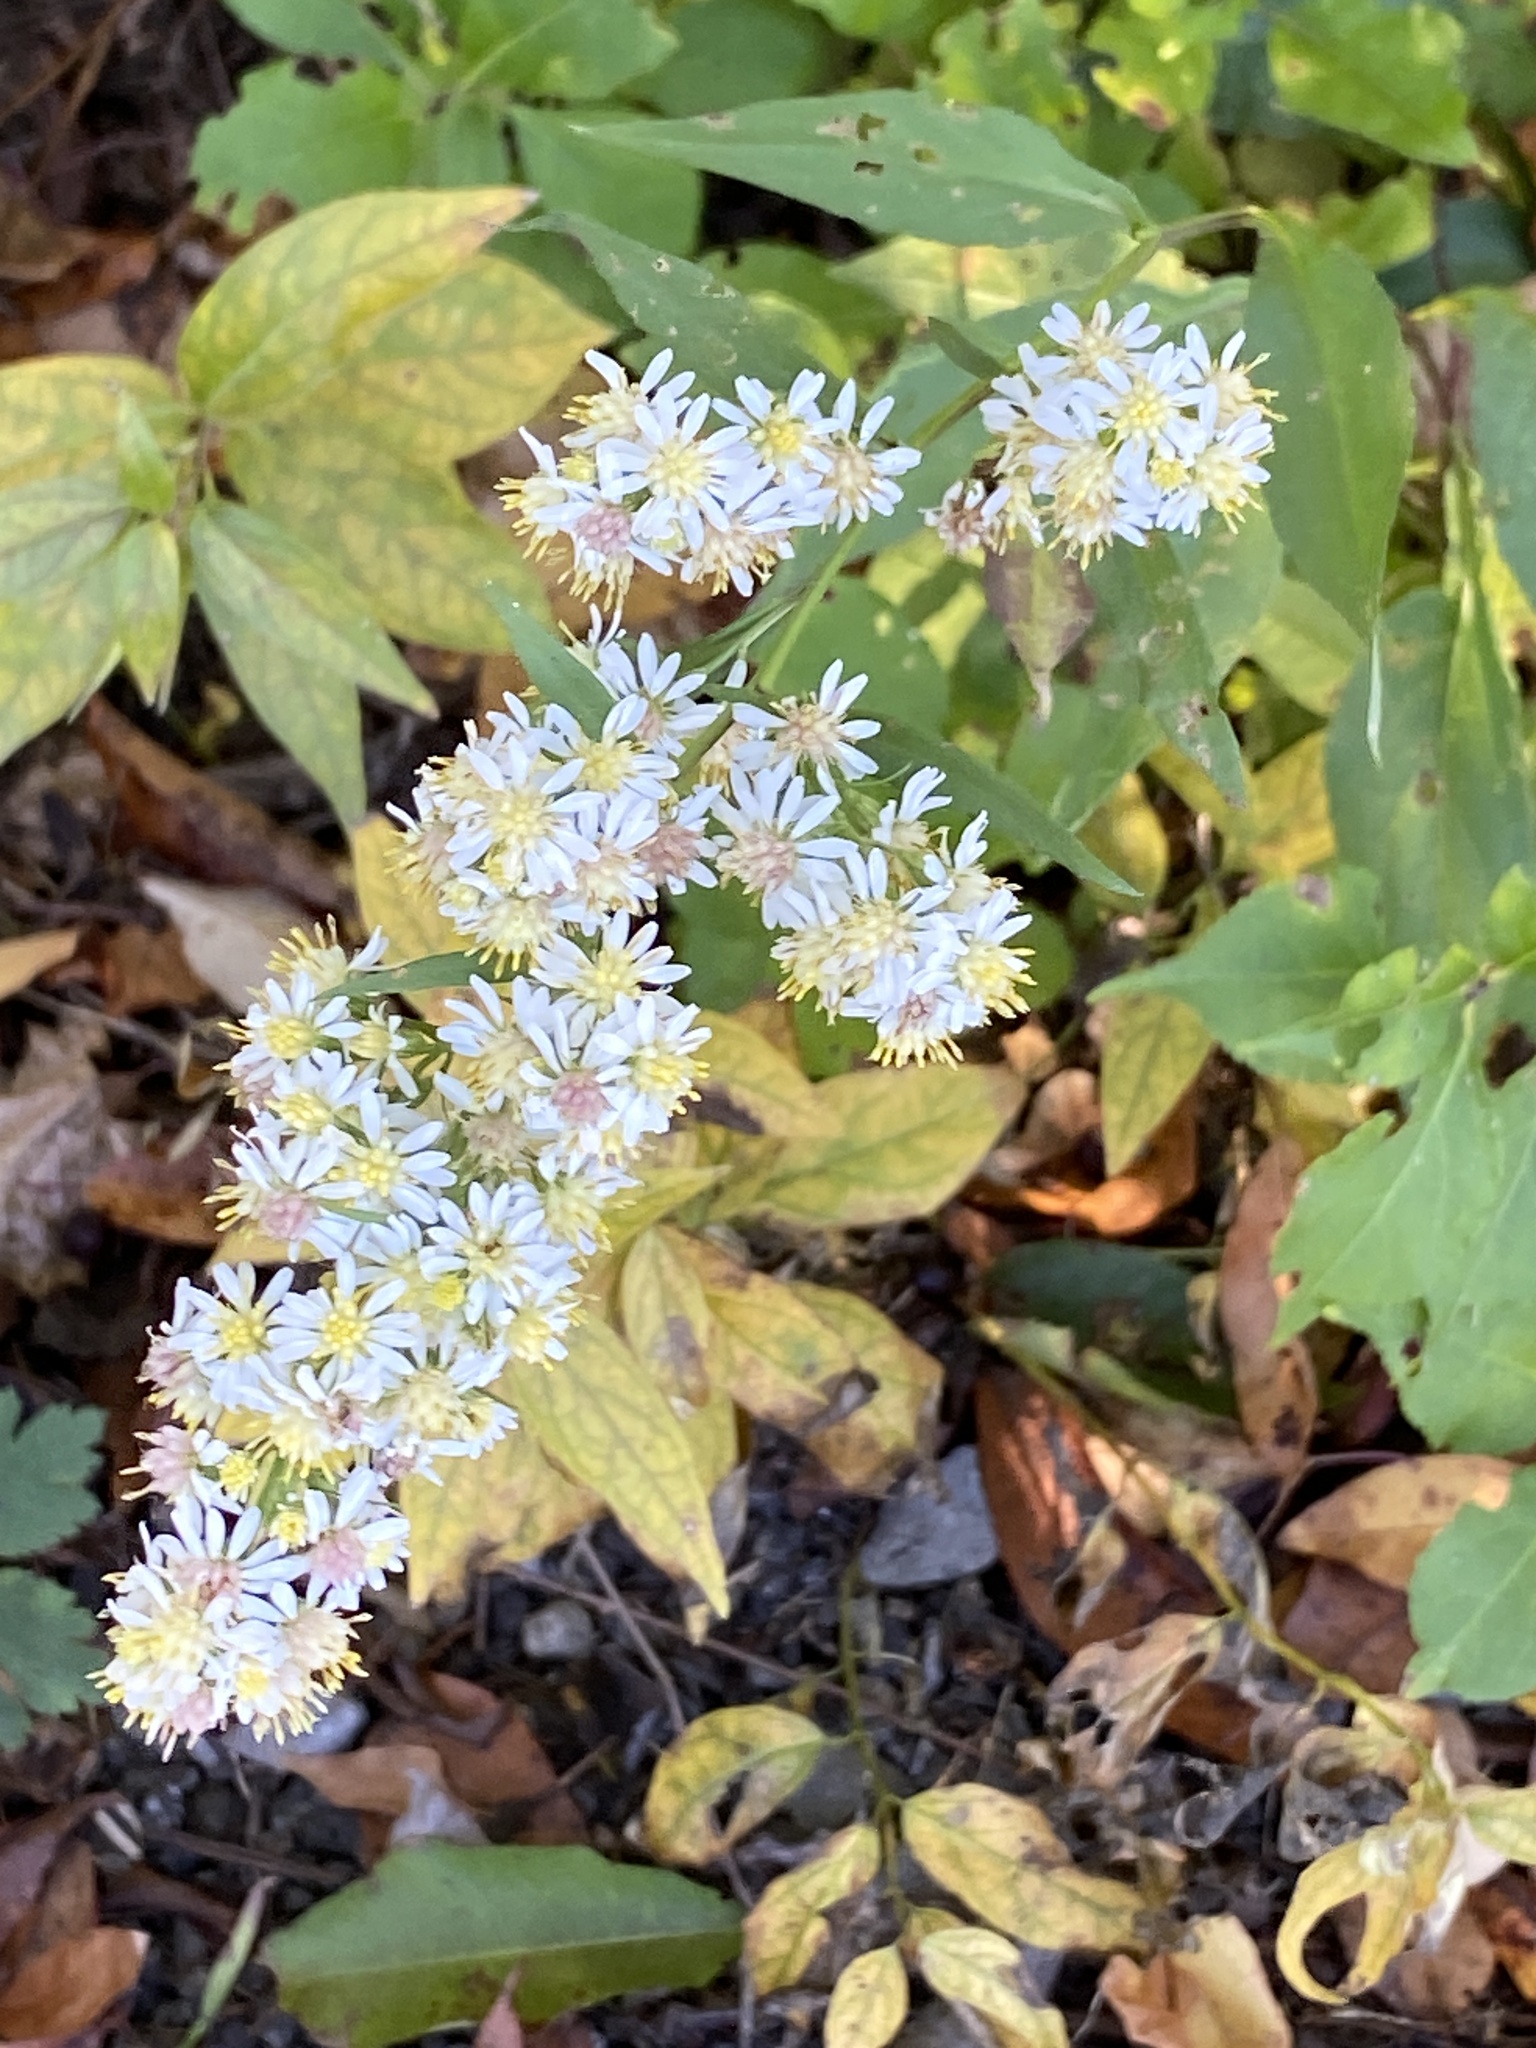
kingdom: Plantae
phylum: Tracheophyta
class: Magnoliopsida
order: Asterales
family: Asteraceae
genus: Symphyotrichum
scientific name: Symphyotrichum urophyllum
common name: Arrow-leaved aster
